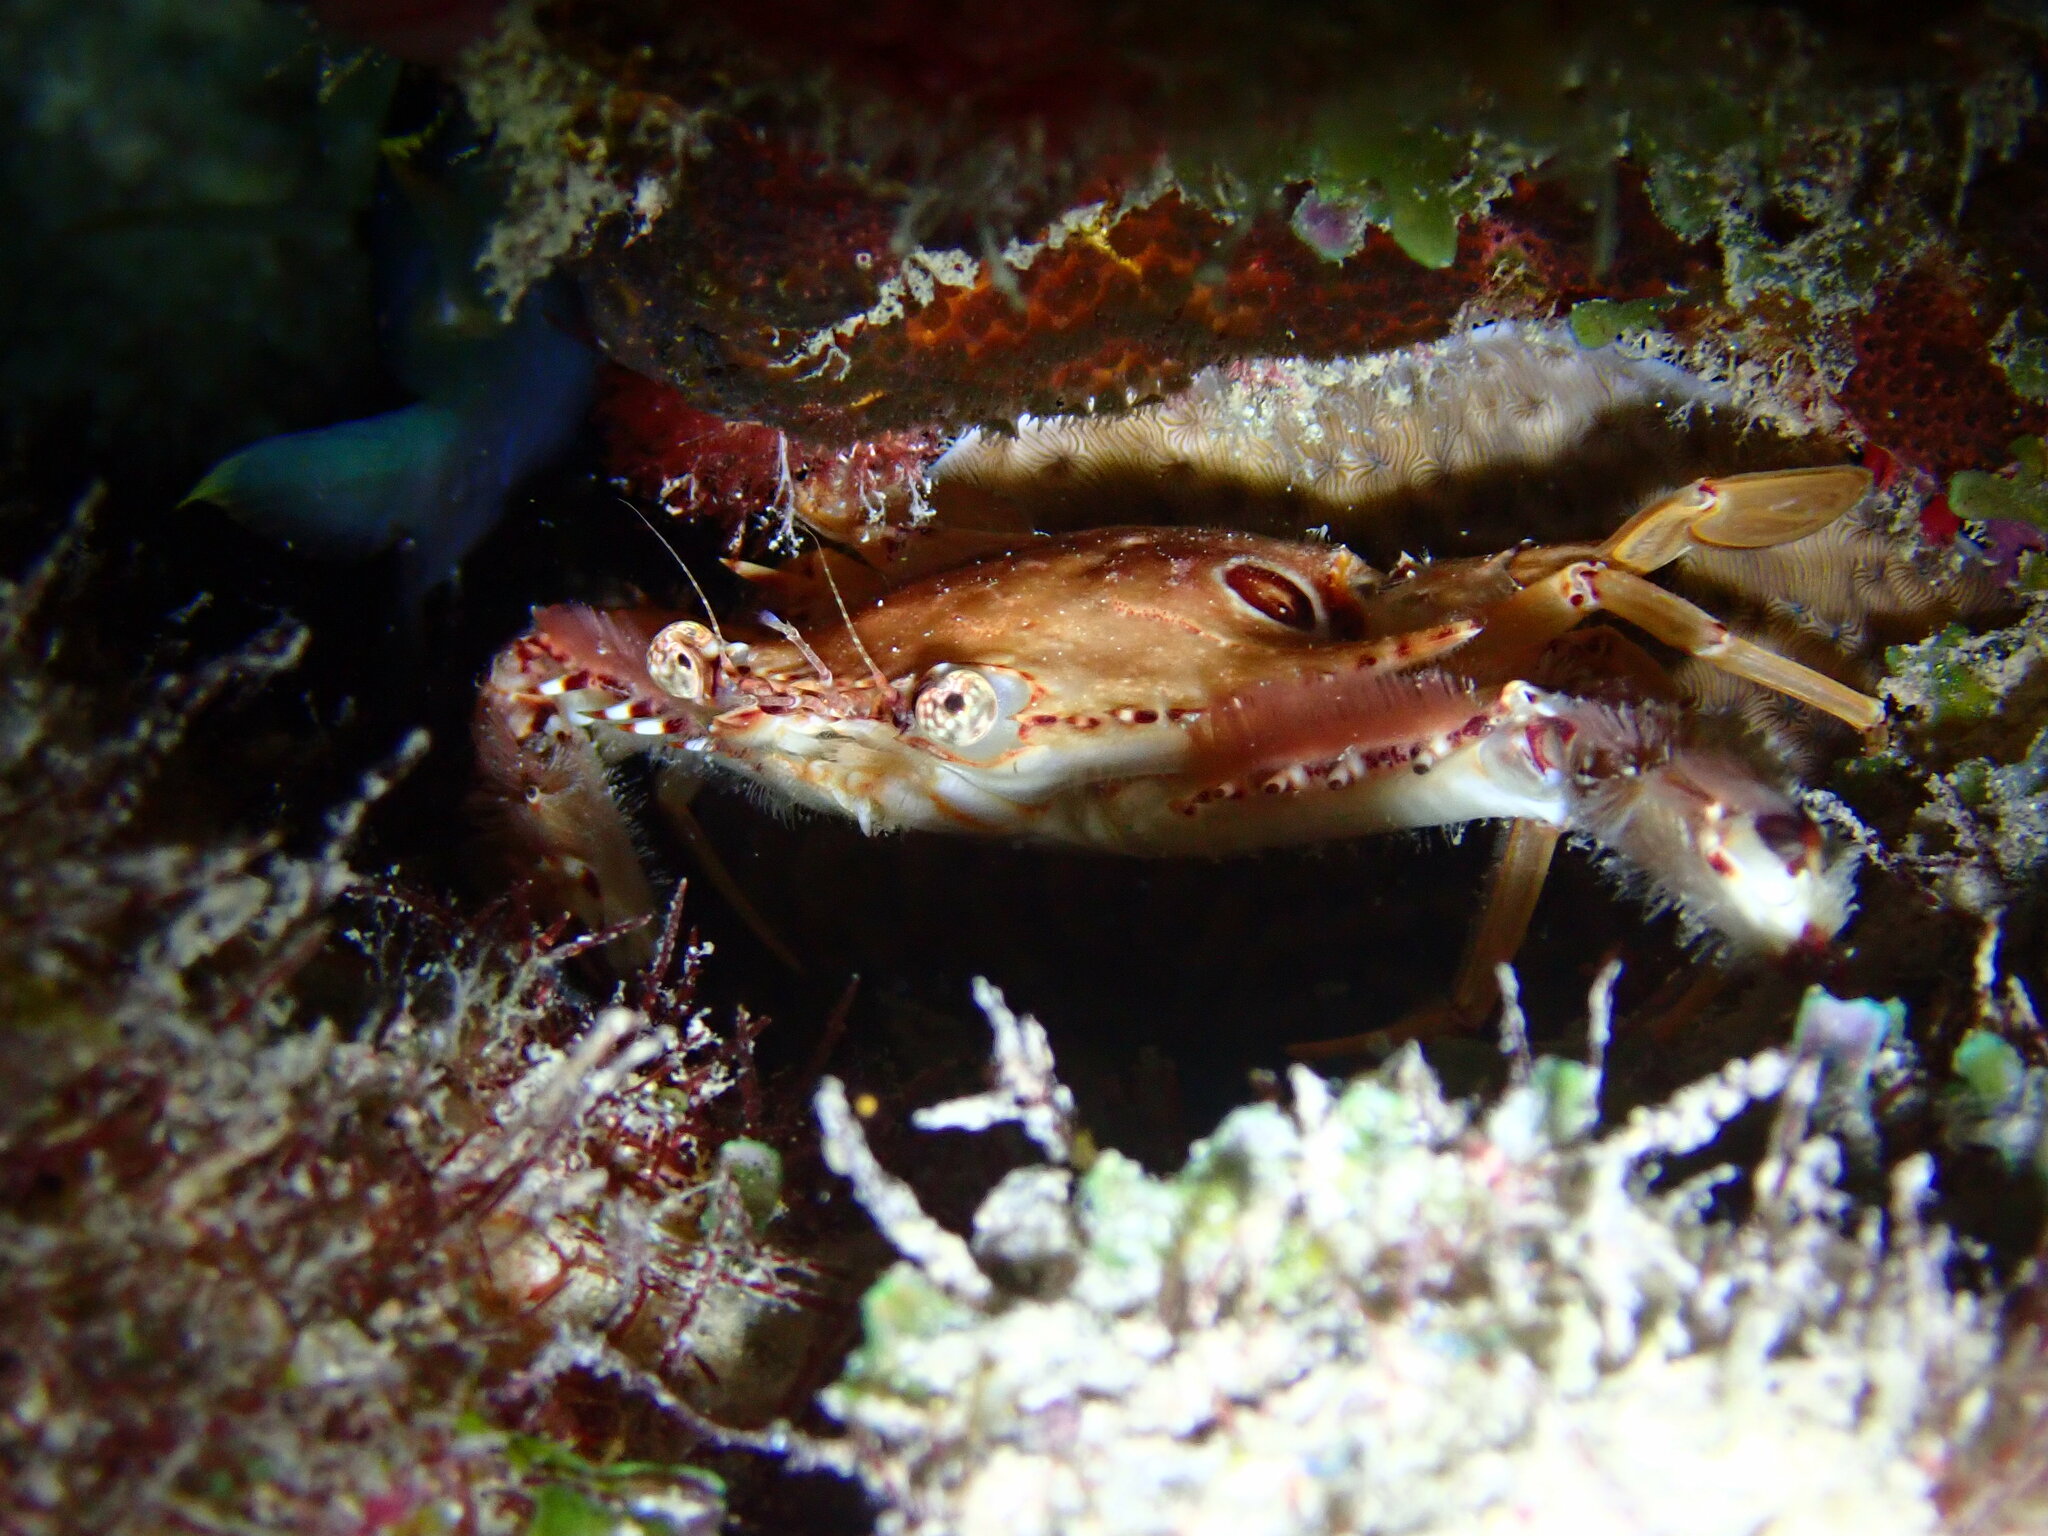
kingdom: Animalia
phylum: Arthropoda
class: Malacostraca
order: Decapoda
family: Portunidae
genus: Achelous
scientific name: Achelous sebae
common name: Ocellate swimming crab
